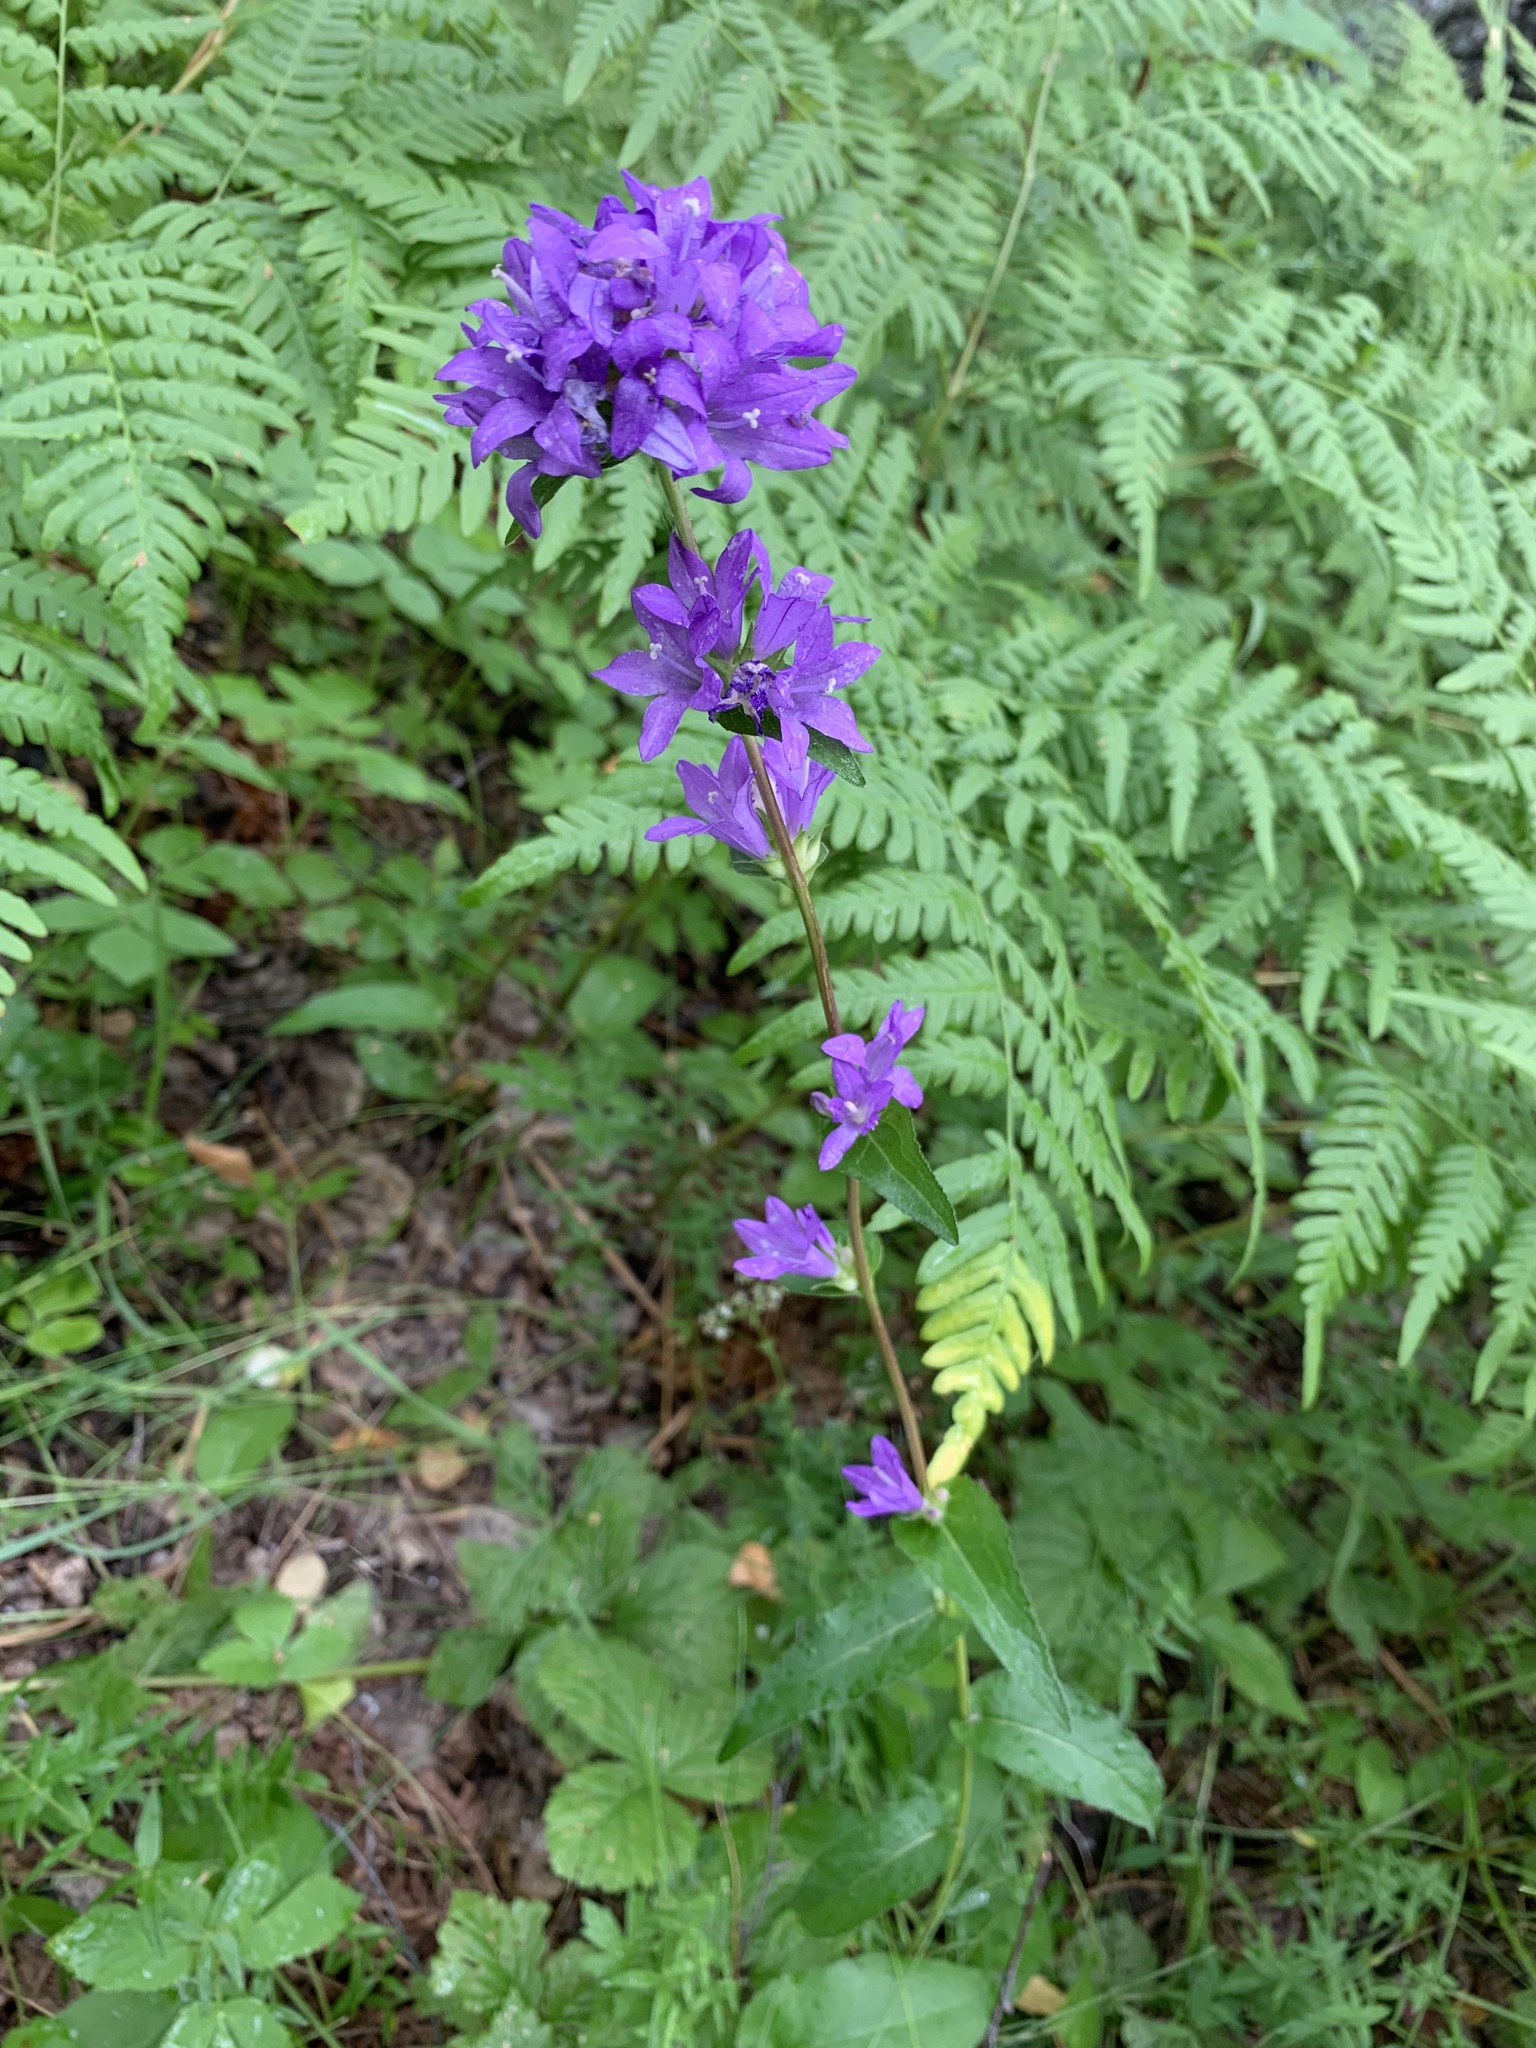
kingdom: Plantae
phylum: Tracheophyta
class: Magnoliopsida
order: Asterales
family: Campanulaceae
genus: Campanula
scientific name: Campanula glomerata
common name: Clustered bellflower
